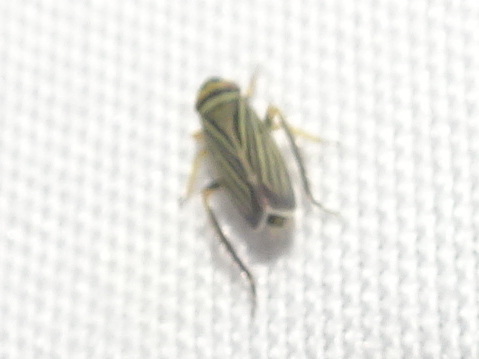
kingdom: Animalia
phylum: Arthropoda
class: Insecta
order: Hemiptera
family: Cicadellidae
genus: Amblysellus
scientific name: Amblysellus curtisii
